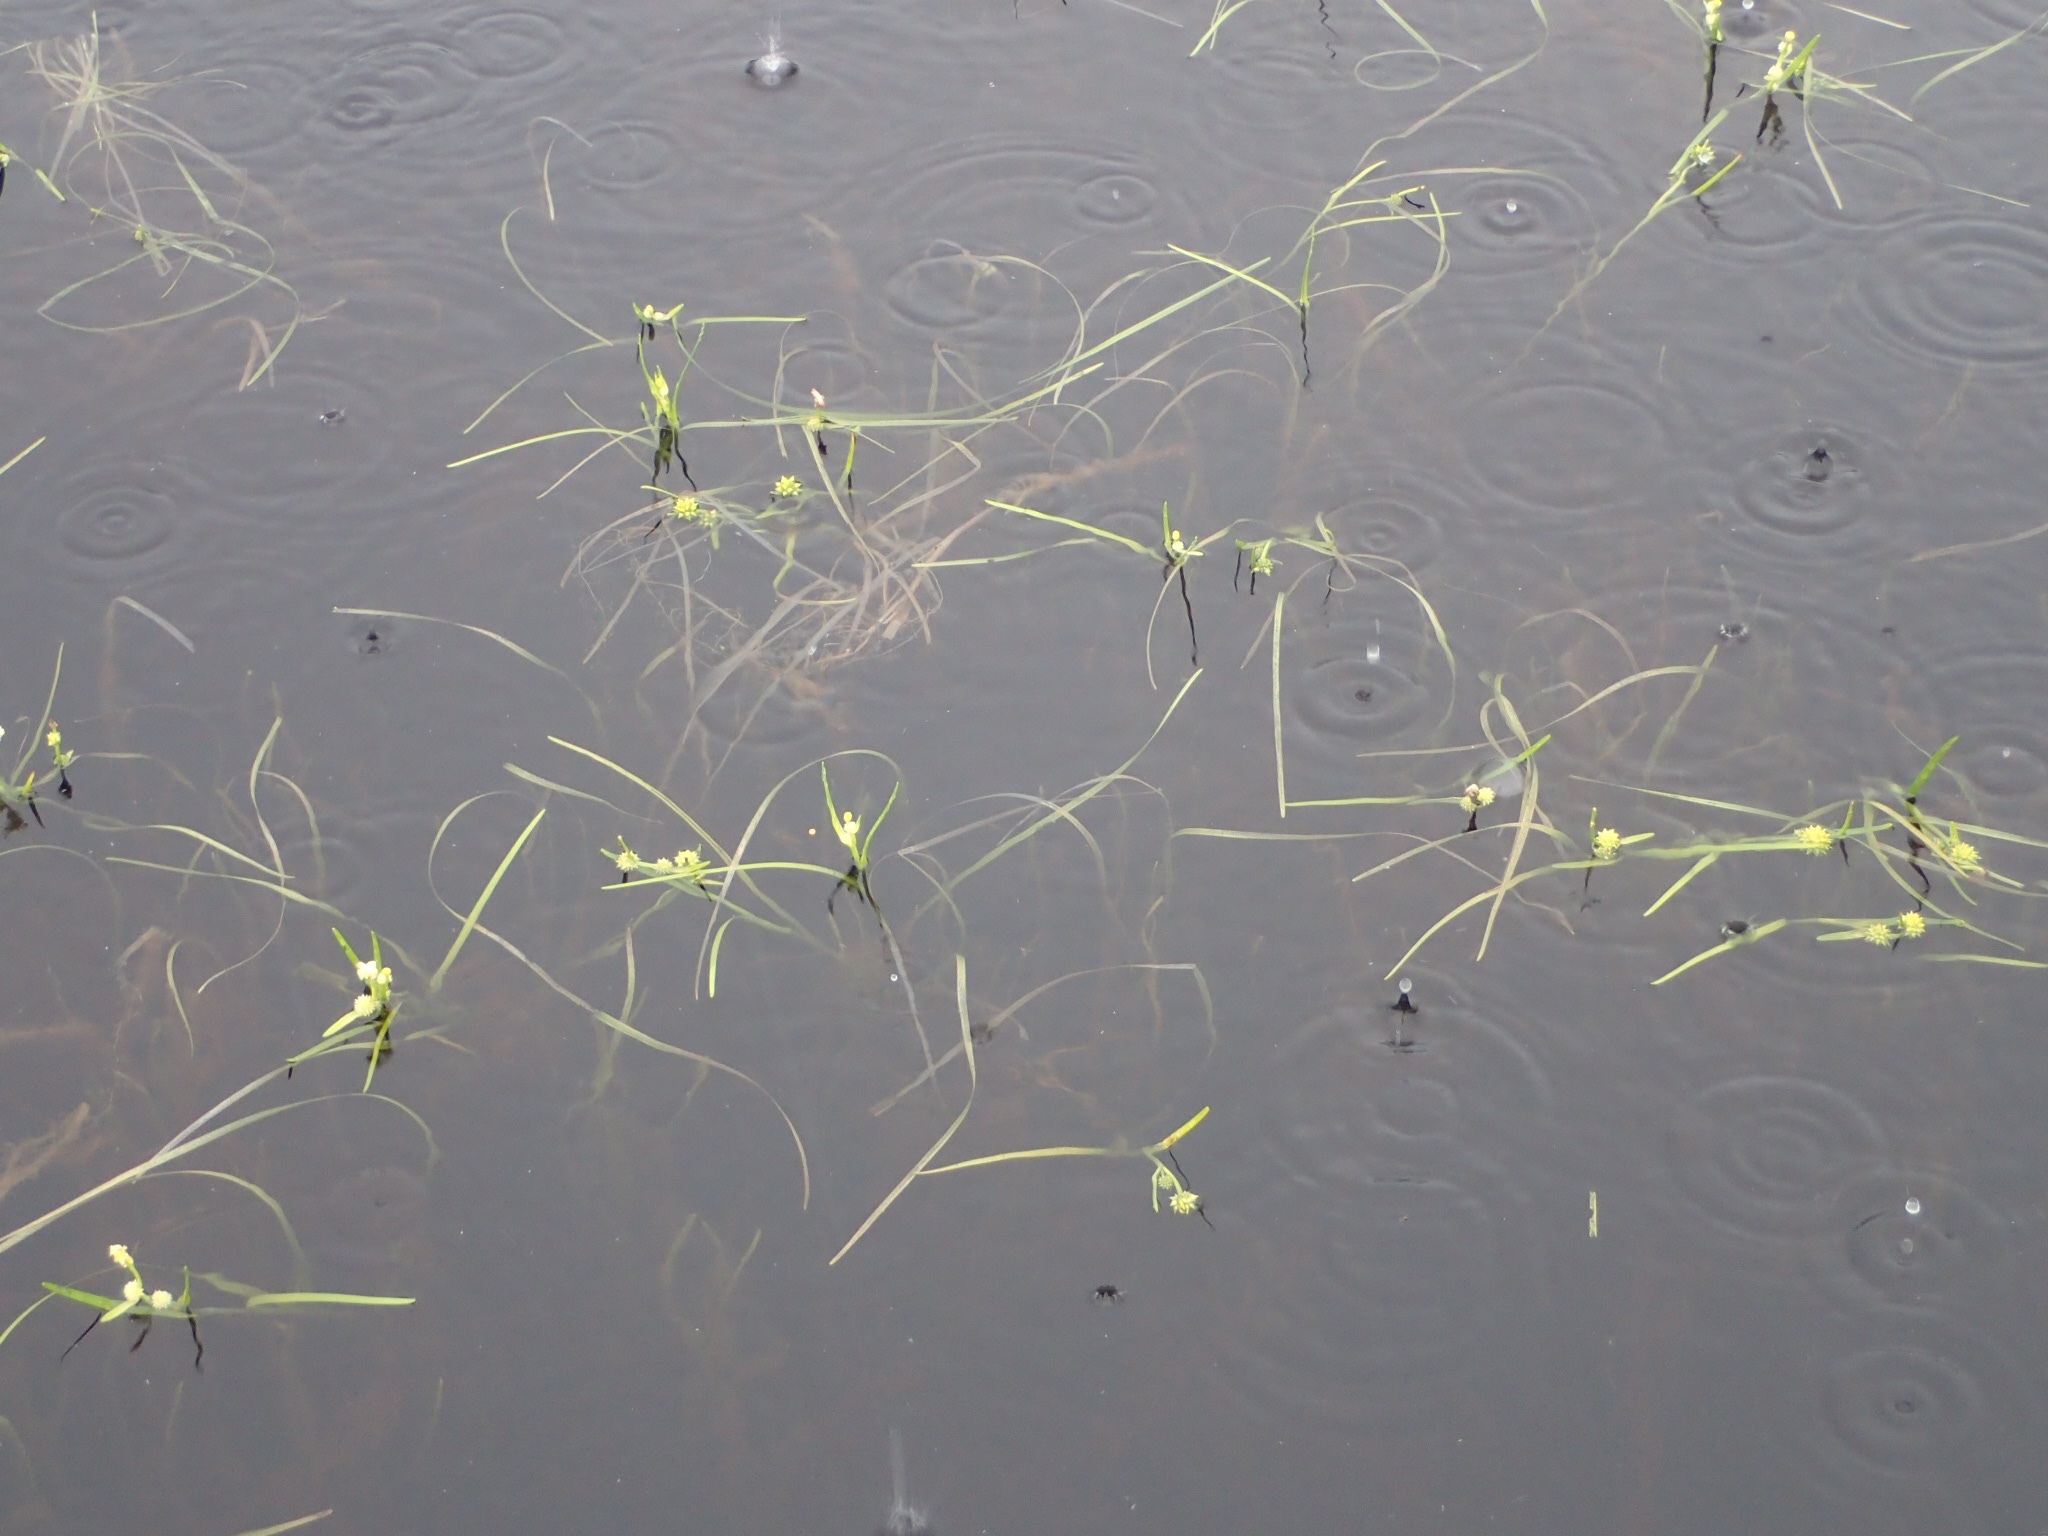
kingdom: Plantae
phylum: Tracheophyta
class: Liliopsida
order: Poales
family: Typhaceae
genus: Sparganium
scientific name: Sparganium natans
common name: Least bur-reed
